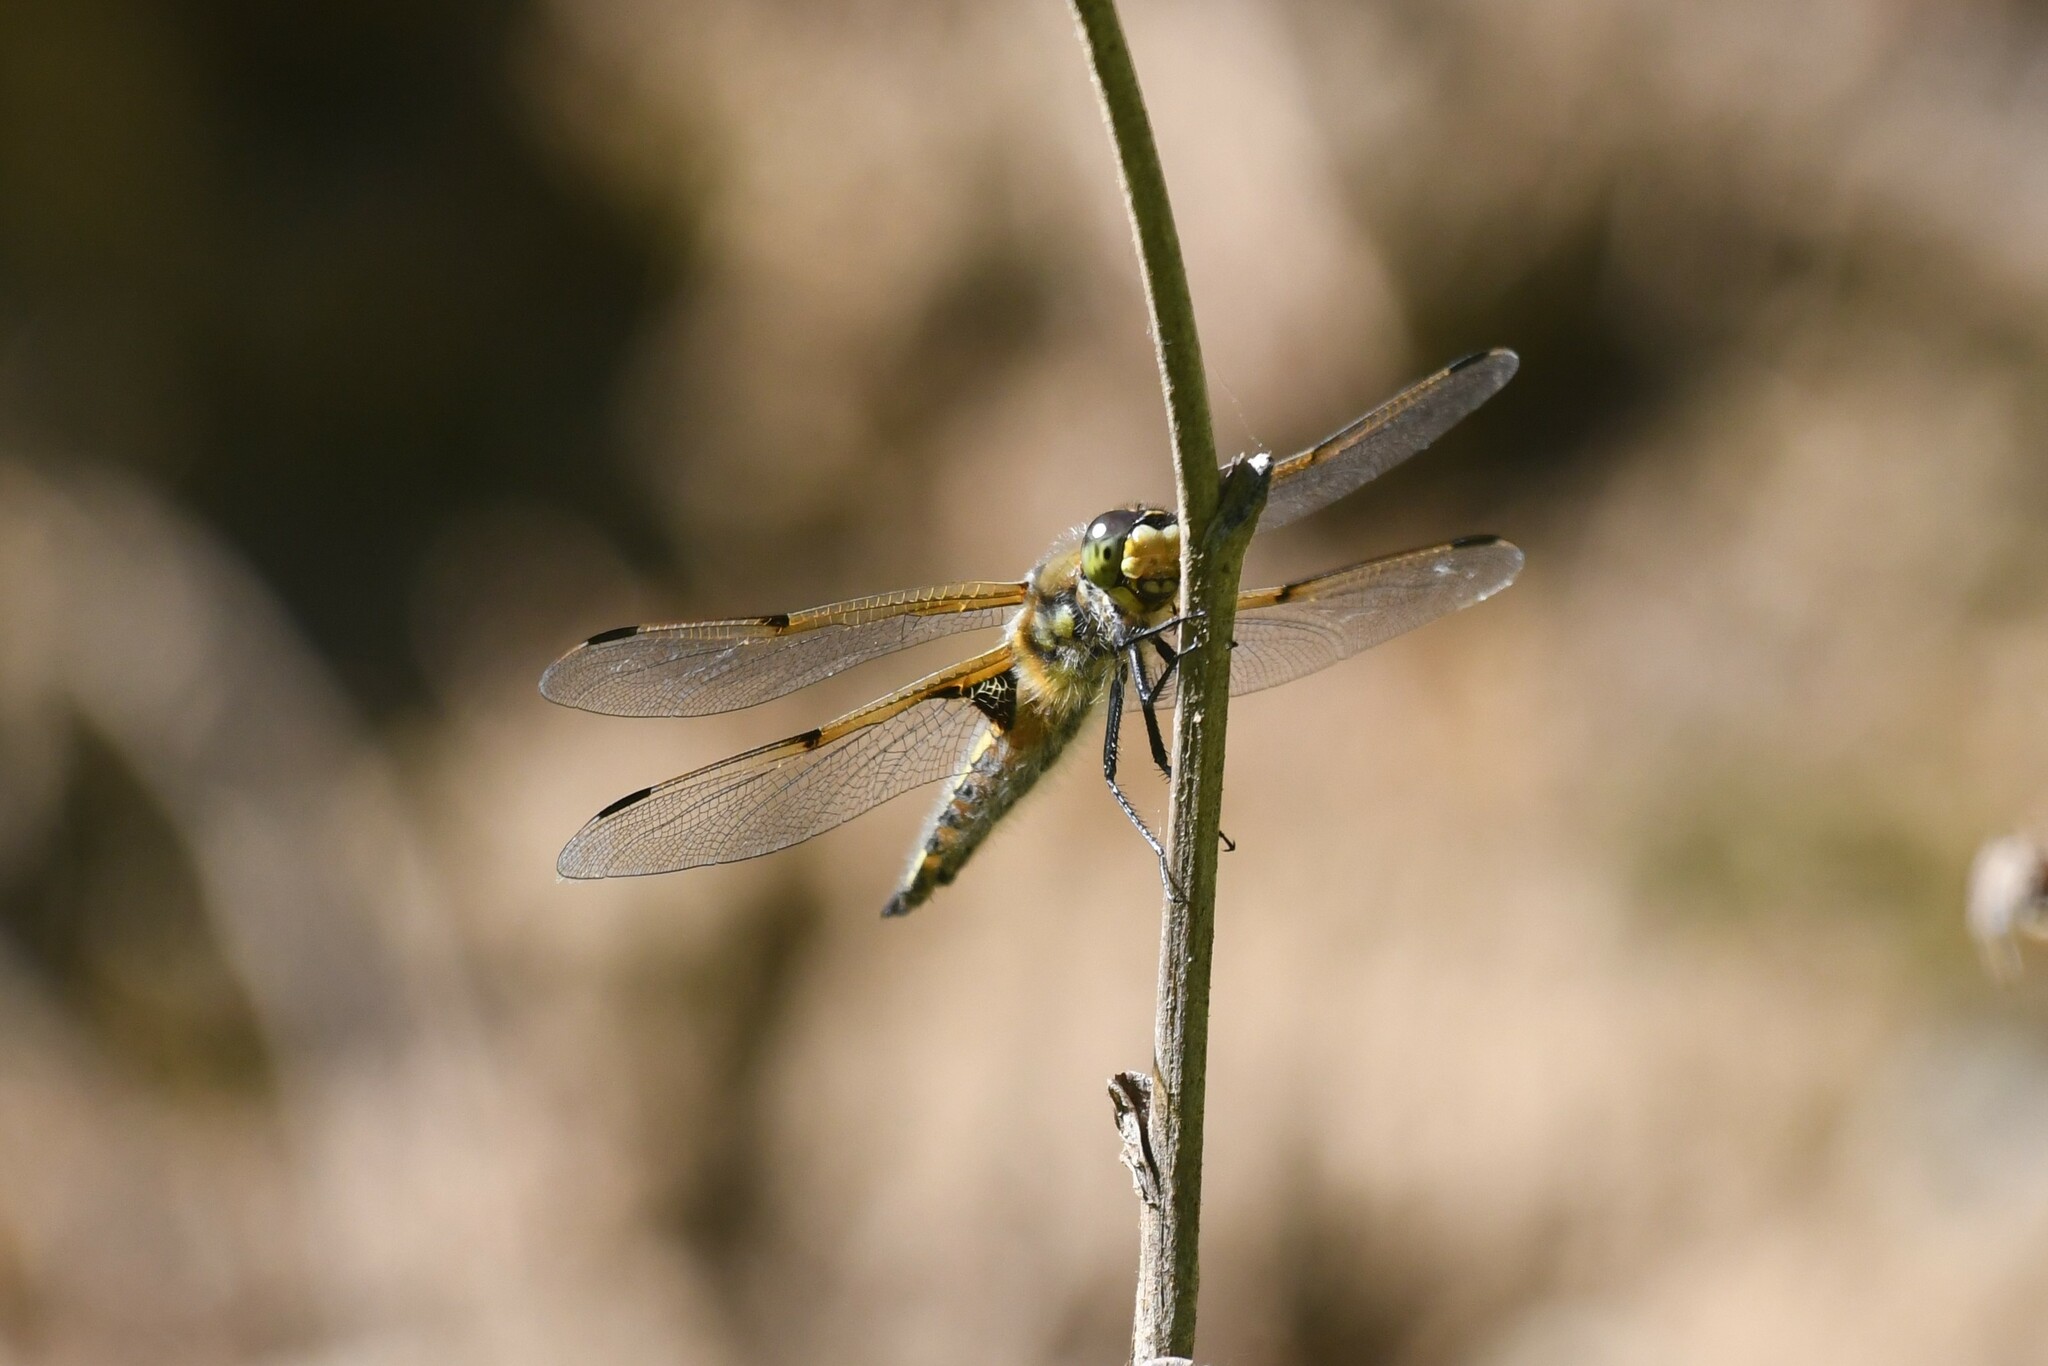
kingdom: Animalia
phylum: Arthropoda
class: Insecta
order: Odonata
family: Libellulidae
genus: Libellula
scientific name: Libellula quadrimaculata
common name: Four-spotted chaser
